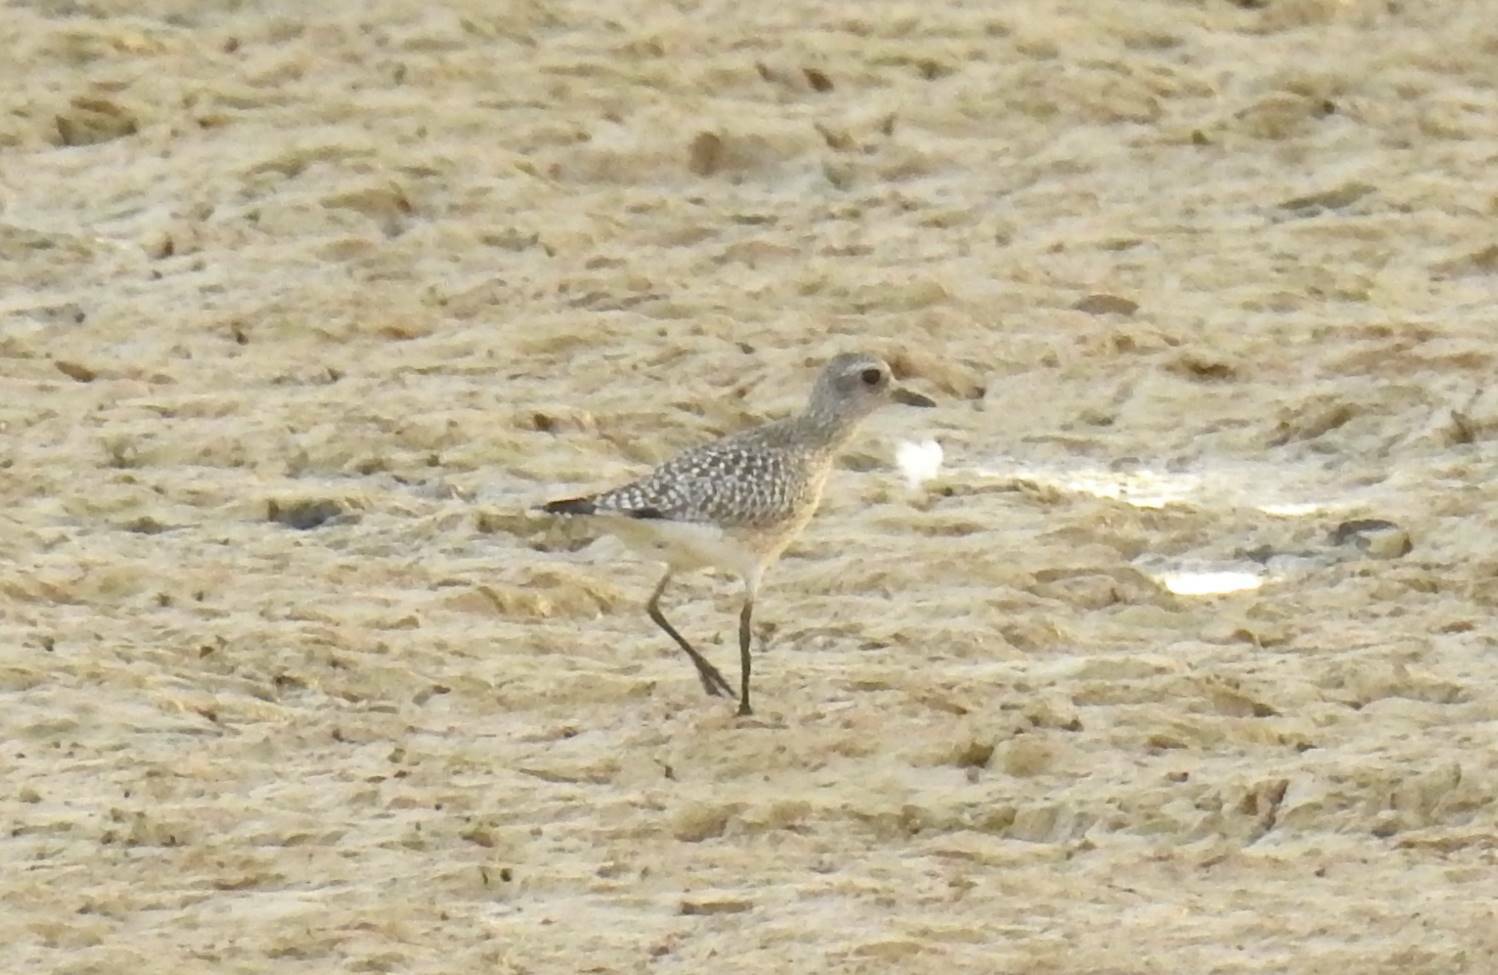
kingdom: Animalia
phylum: Chordata
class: Aves
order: Charadriiformes
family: Charadriidae
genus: Pluvialis
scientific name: Pluvialis squatarola
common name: Grey plover
